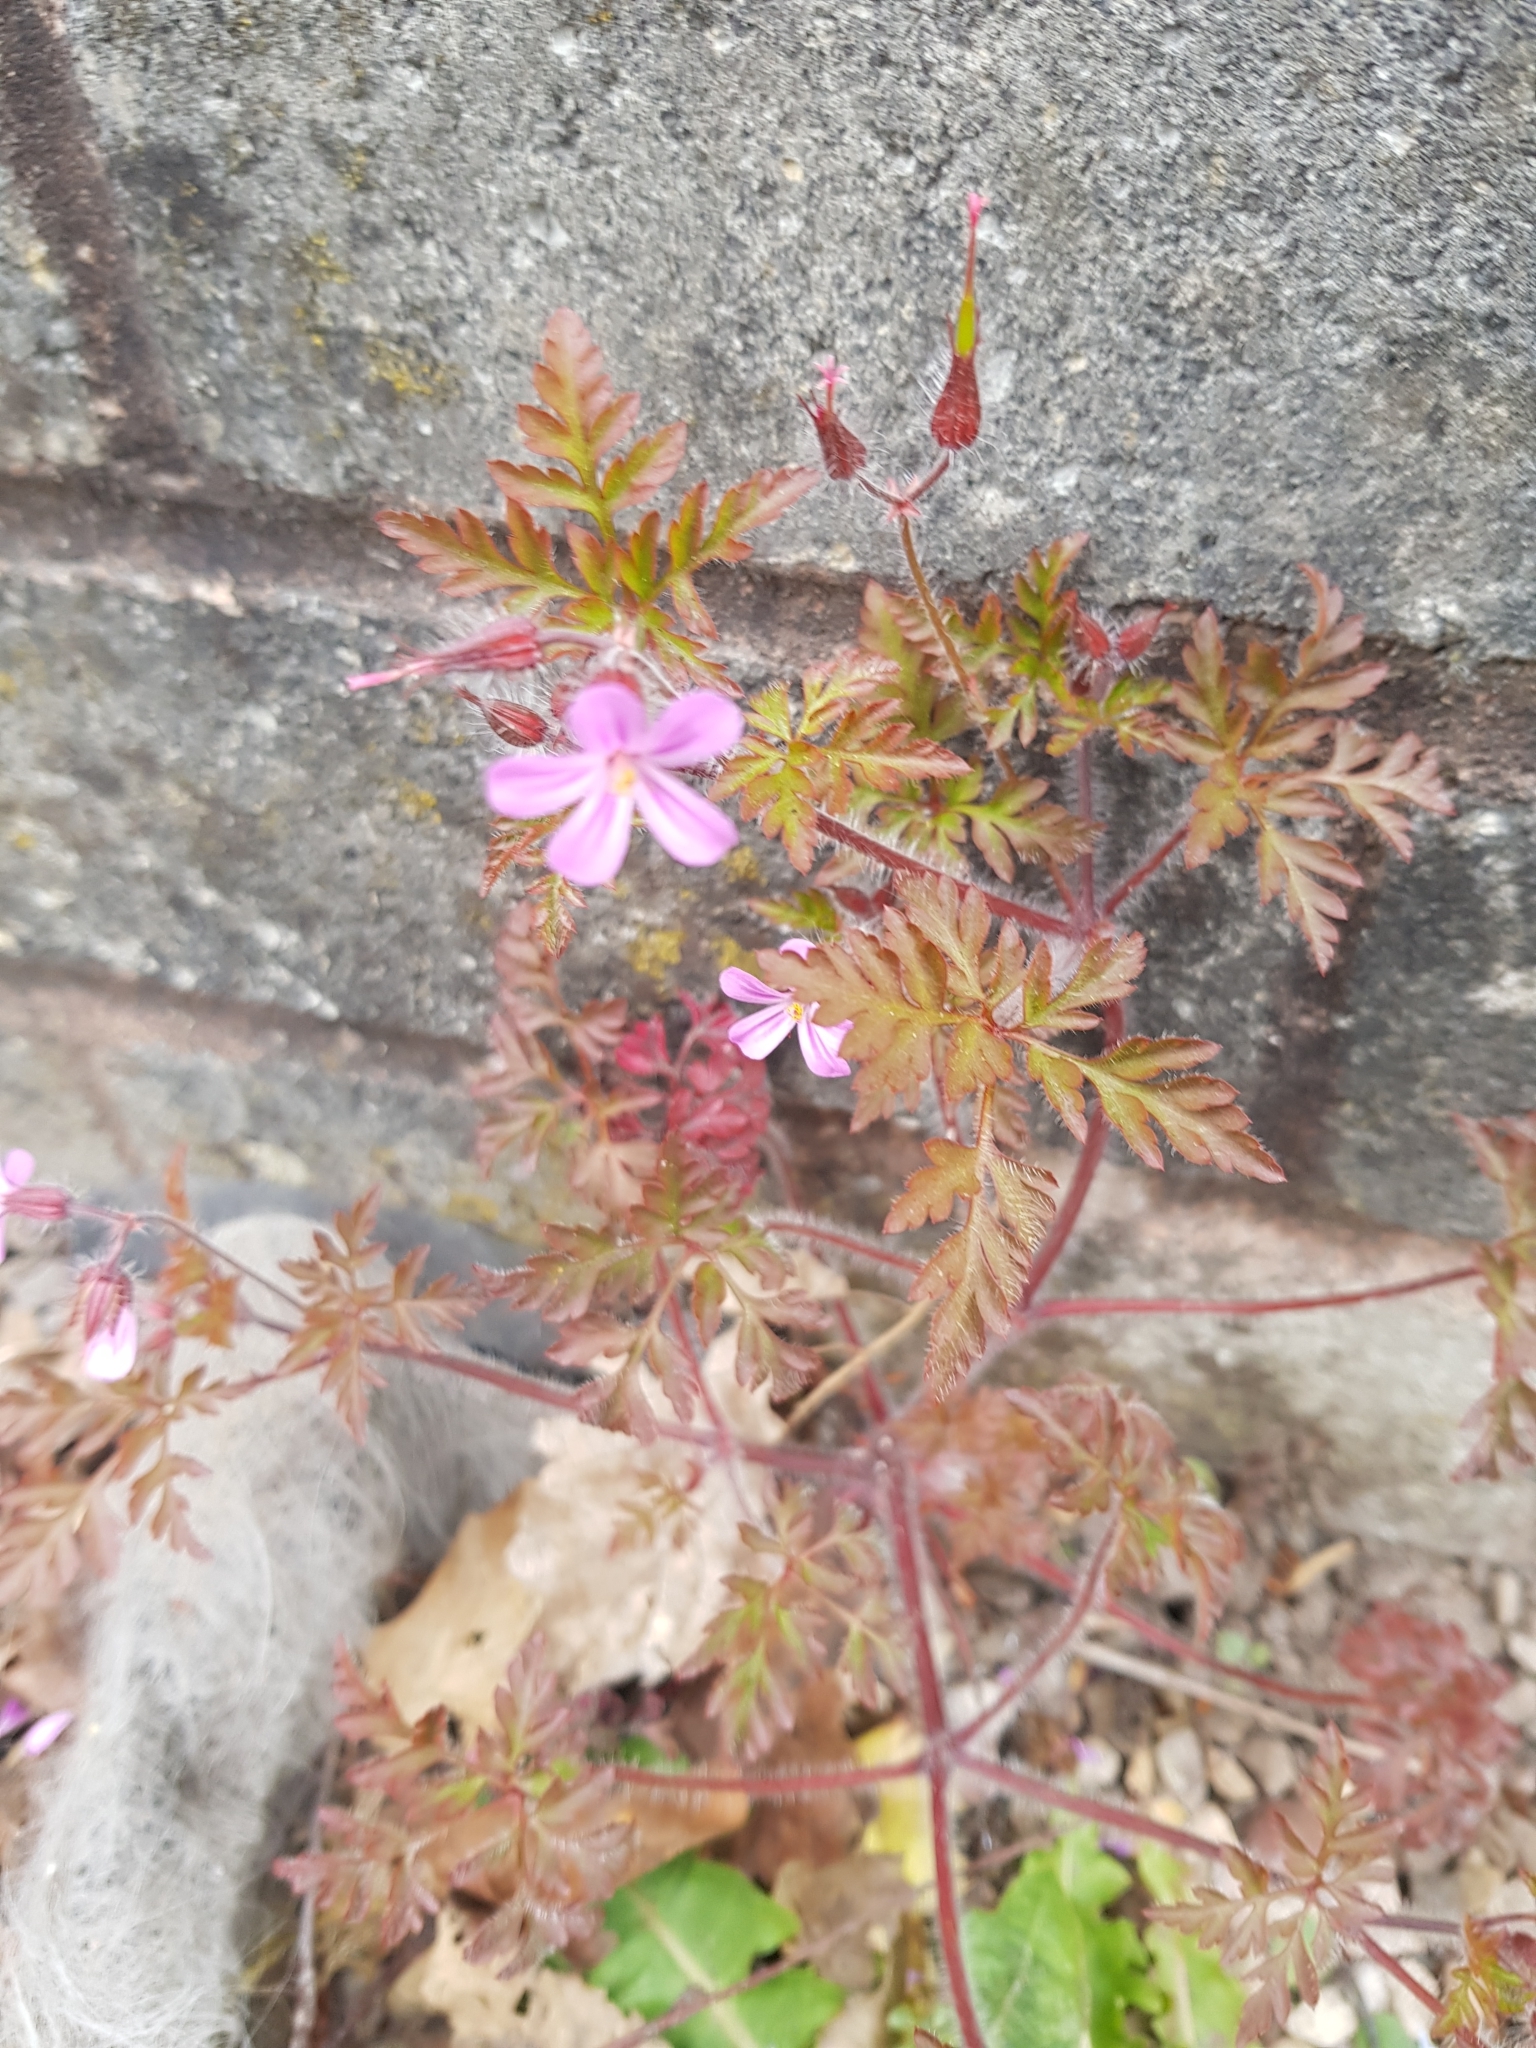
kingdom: Plantae
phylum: Tracheophyta
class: Magnoliopsida
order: Geraniales
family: Geraniaceae
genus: Geranium
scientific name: Geranium robertianum
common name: Herb-robert
